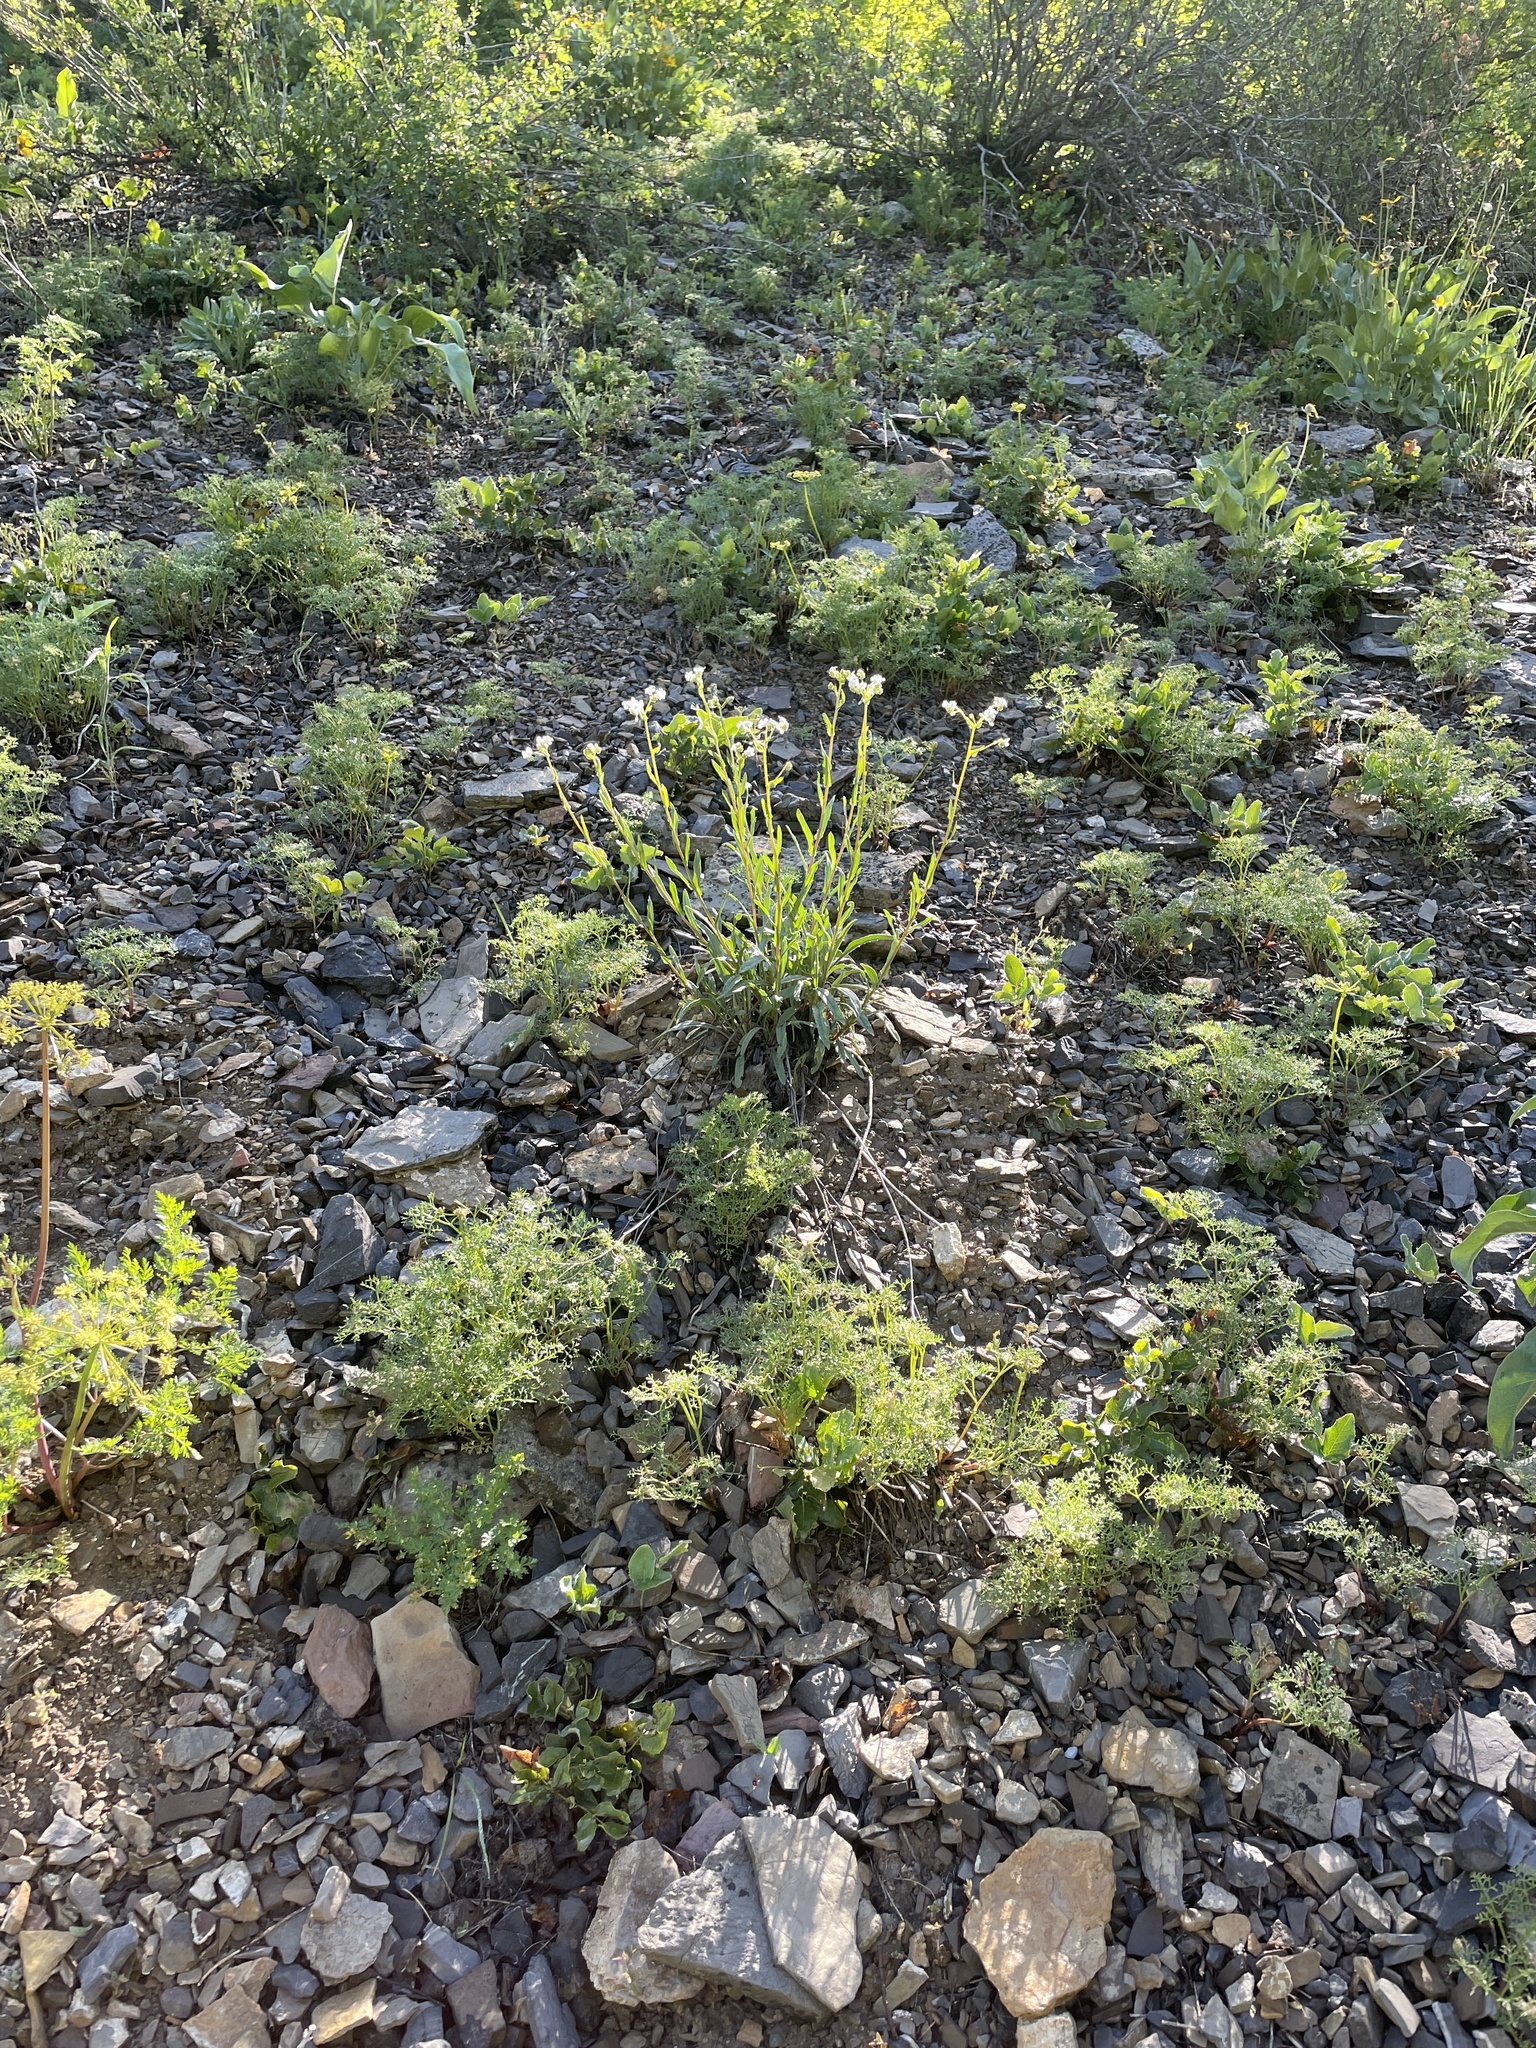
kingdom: Plantae
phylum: Tracheophyta
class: Magnoliopsida
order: Boraginales
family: Boraginaceae
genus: Hackelia
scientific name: Hackelia patens
